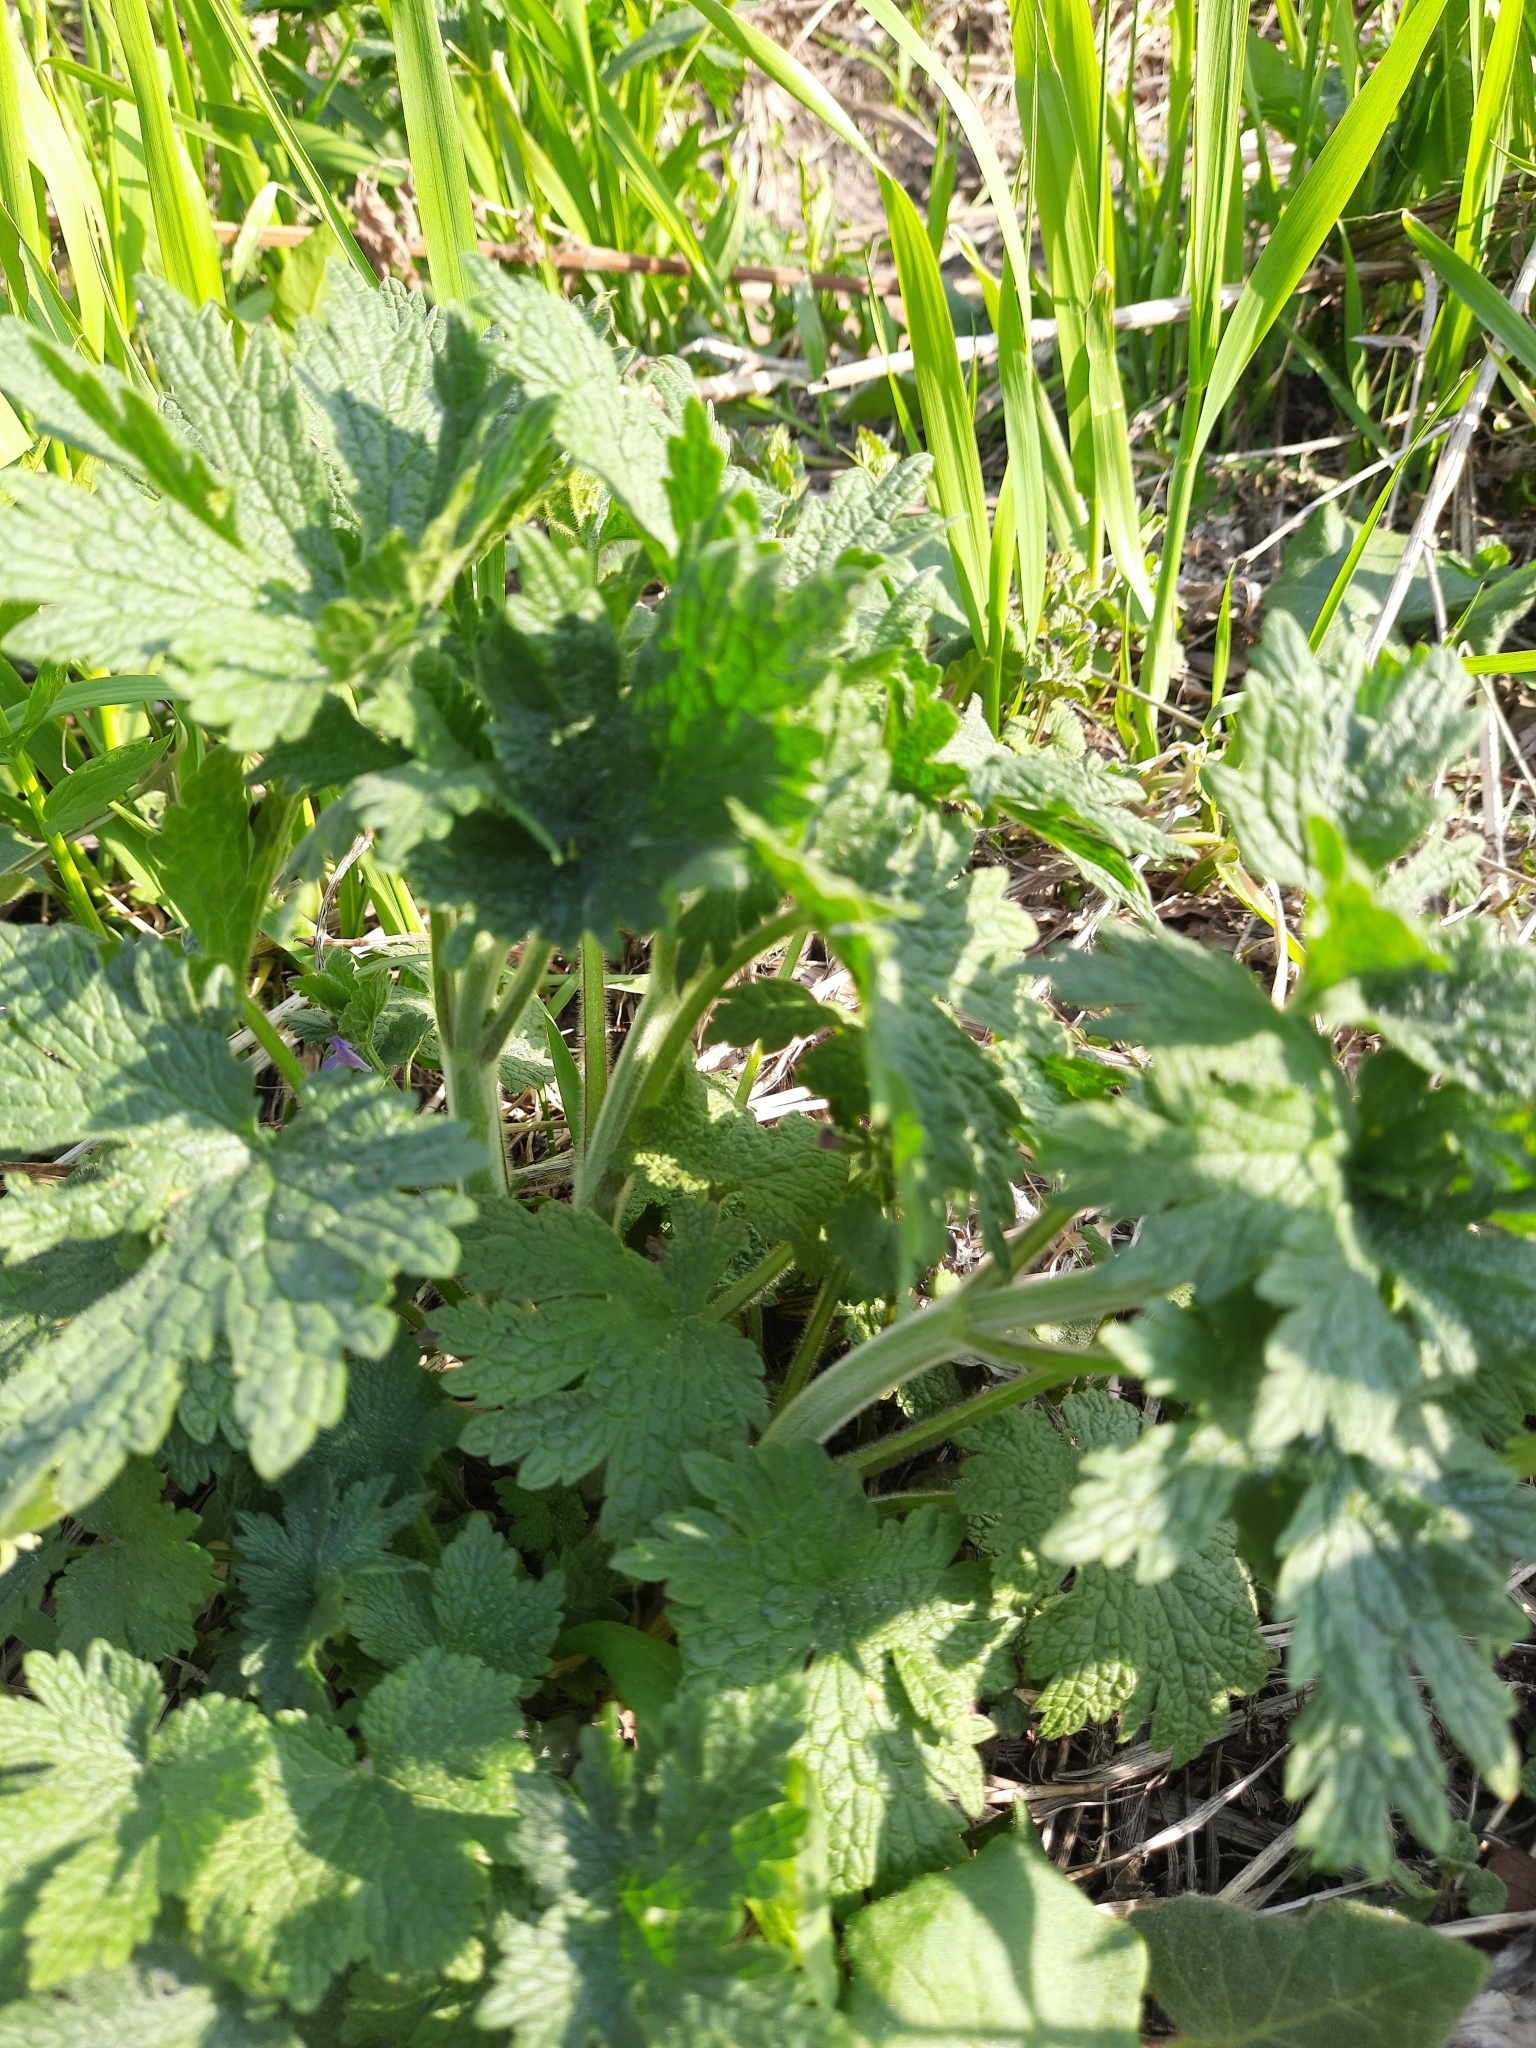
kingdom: Plantae
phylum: Tracheophyta
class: Magnoliopsida
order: Lamiales
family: Lamiaceae
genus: Leonurus
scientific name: Leonurus quinquelobatus
